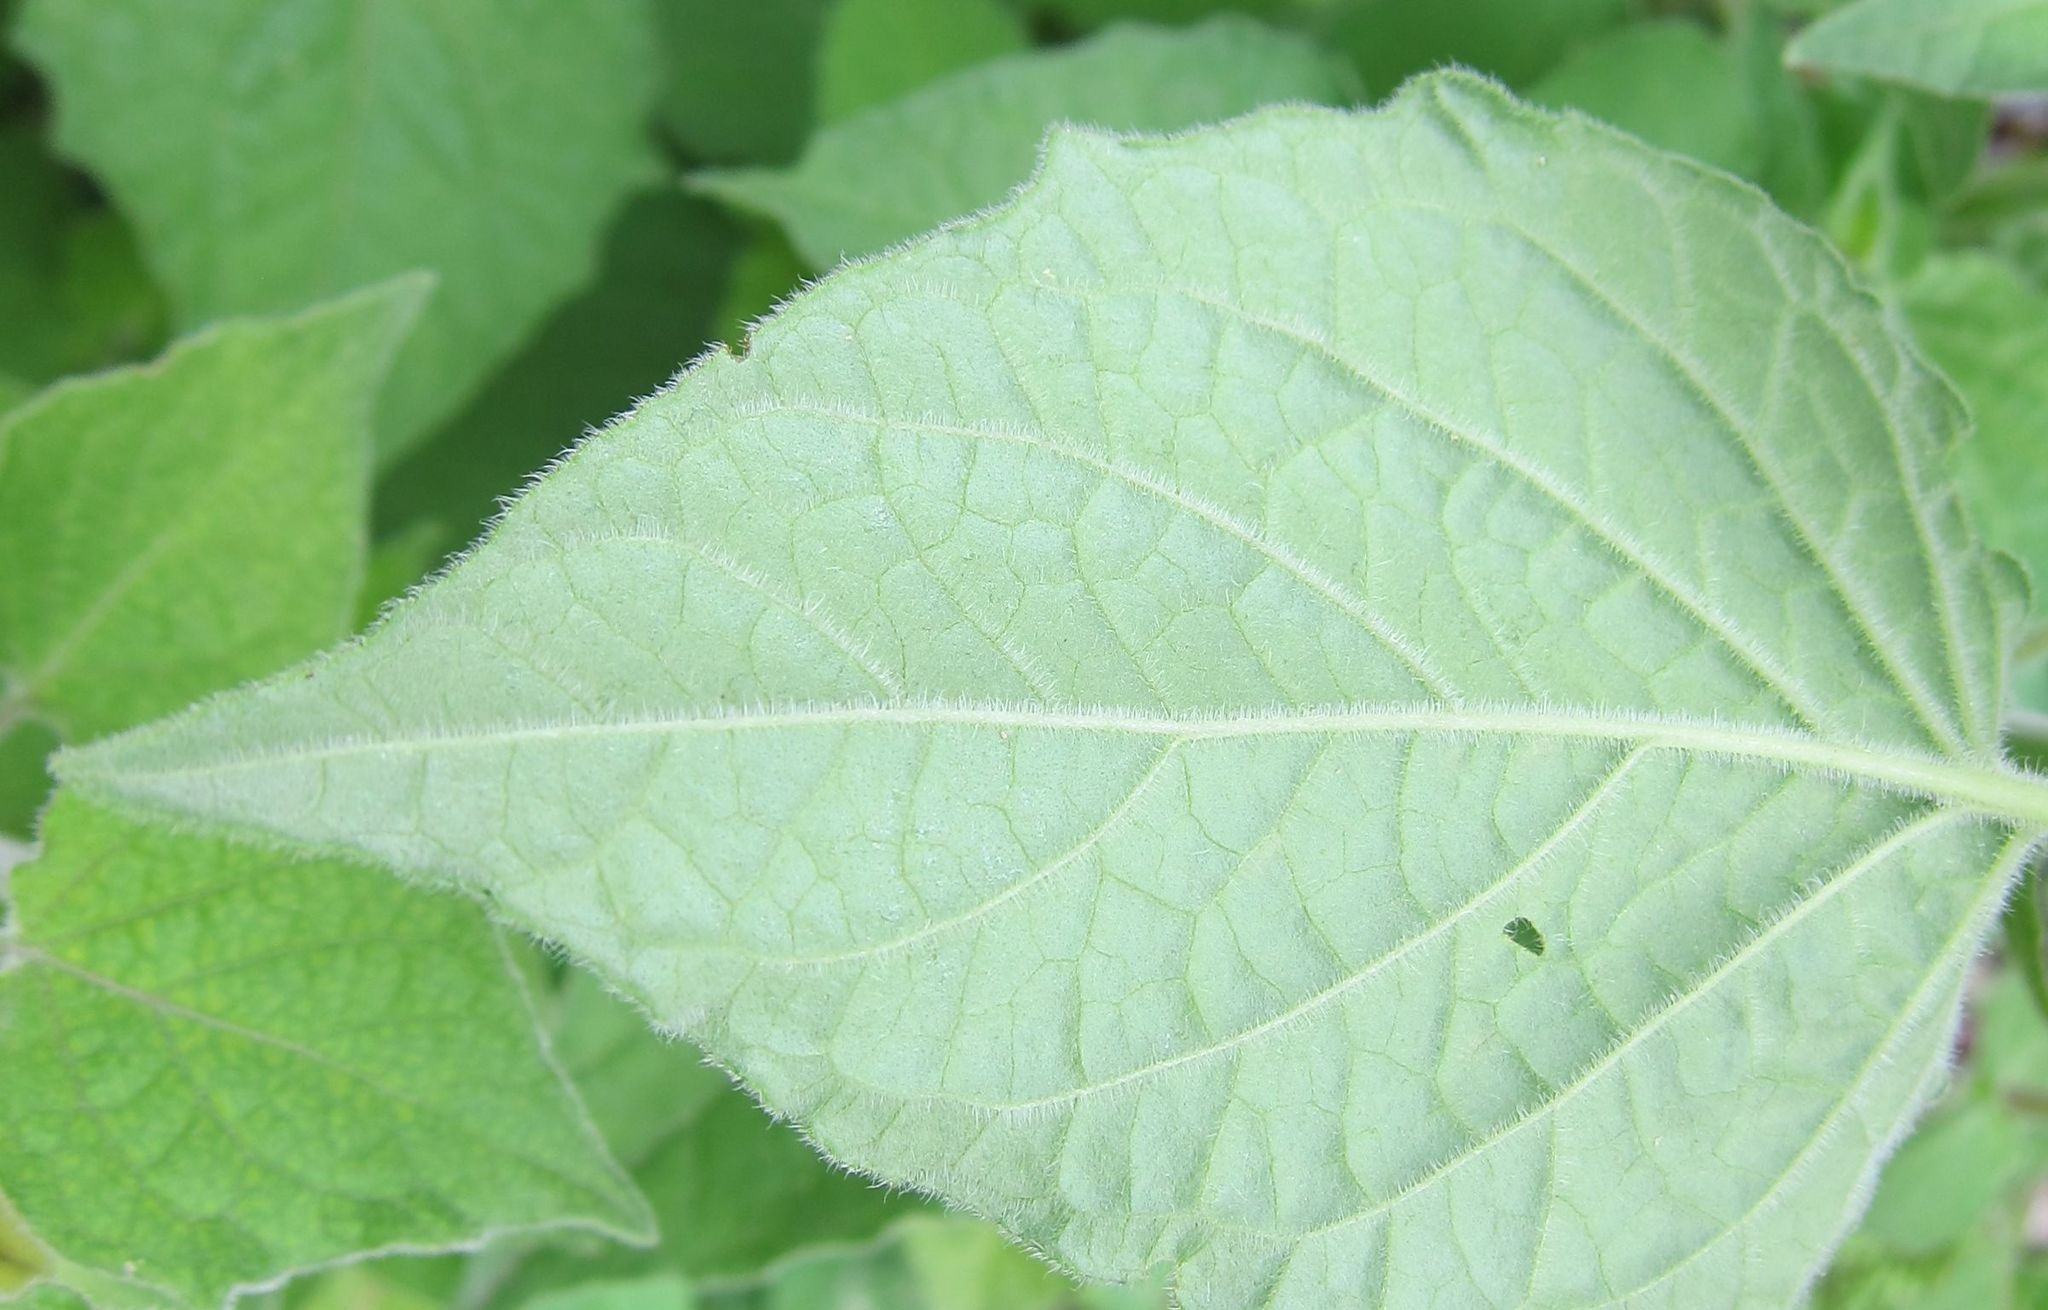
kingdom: Plantae
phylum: Tracheophyta
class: Magnoliopsida
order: Solanales
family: Solanaceae
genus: Physalis
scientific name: Physalis peruviana
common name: Cape-gooseberry
